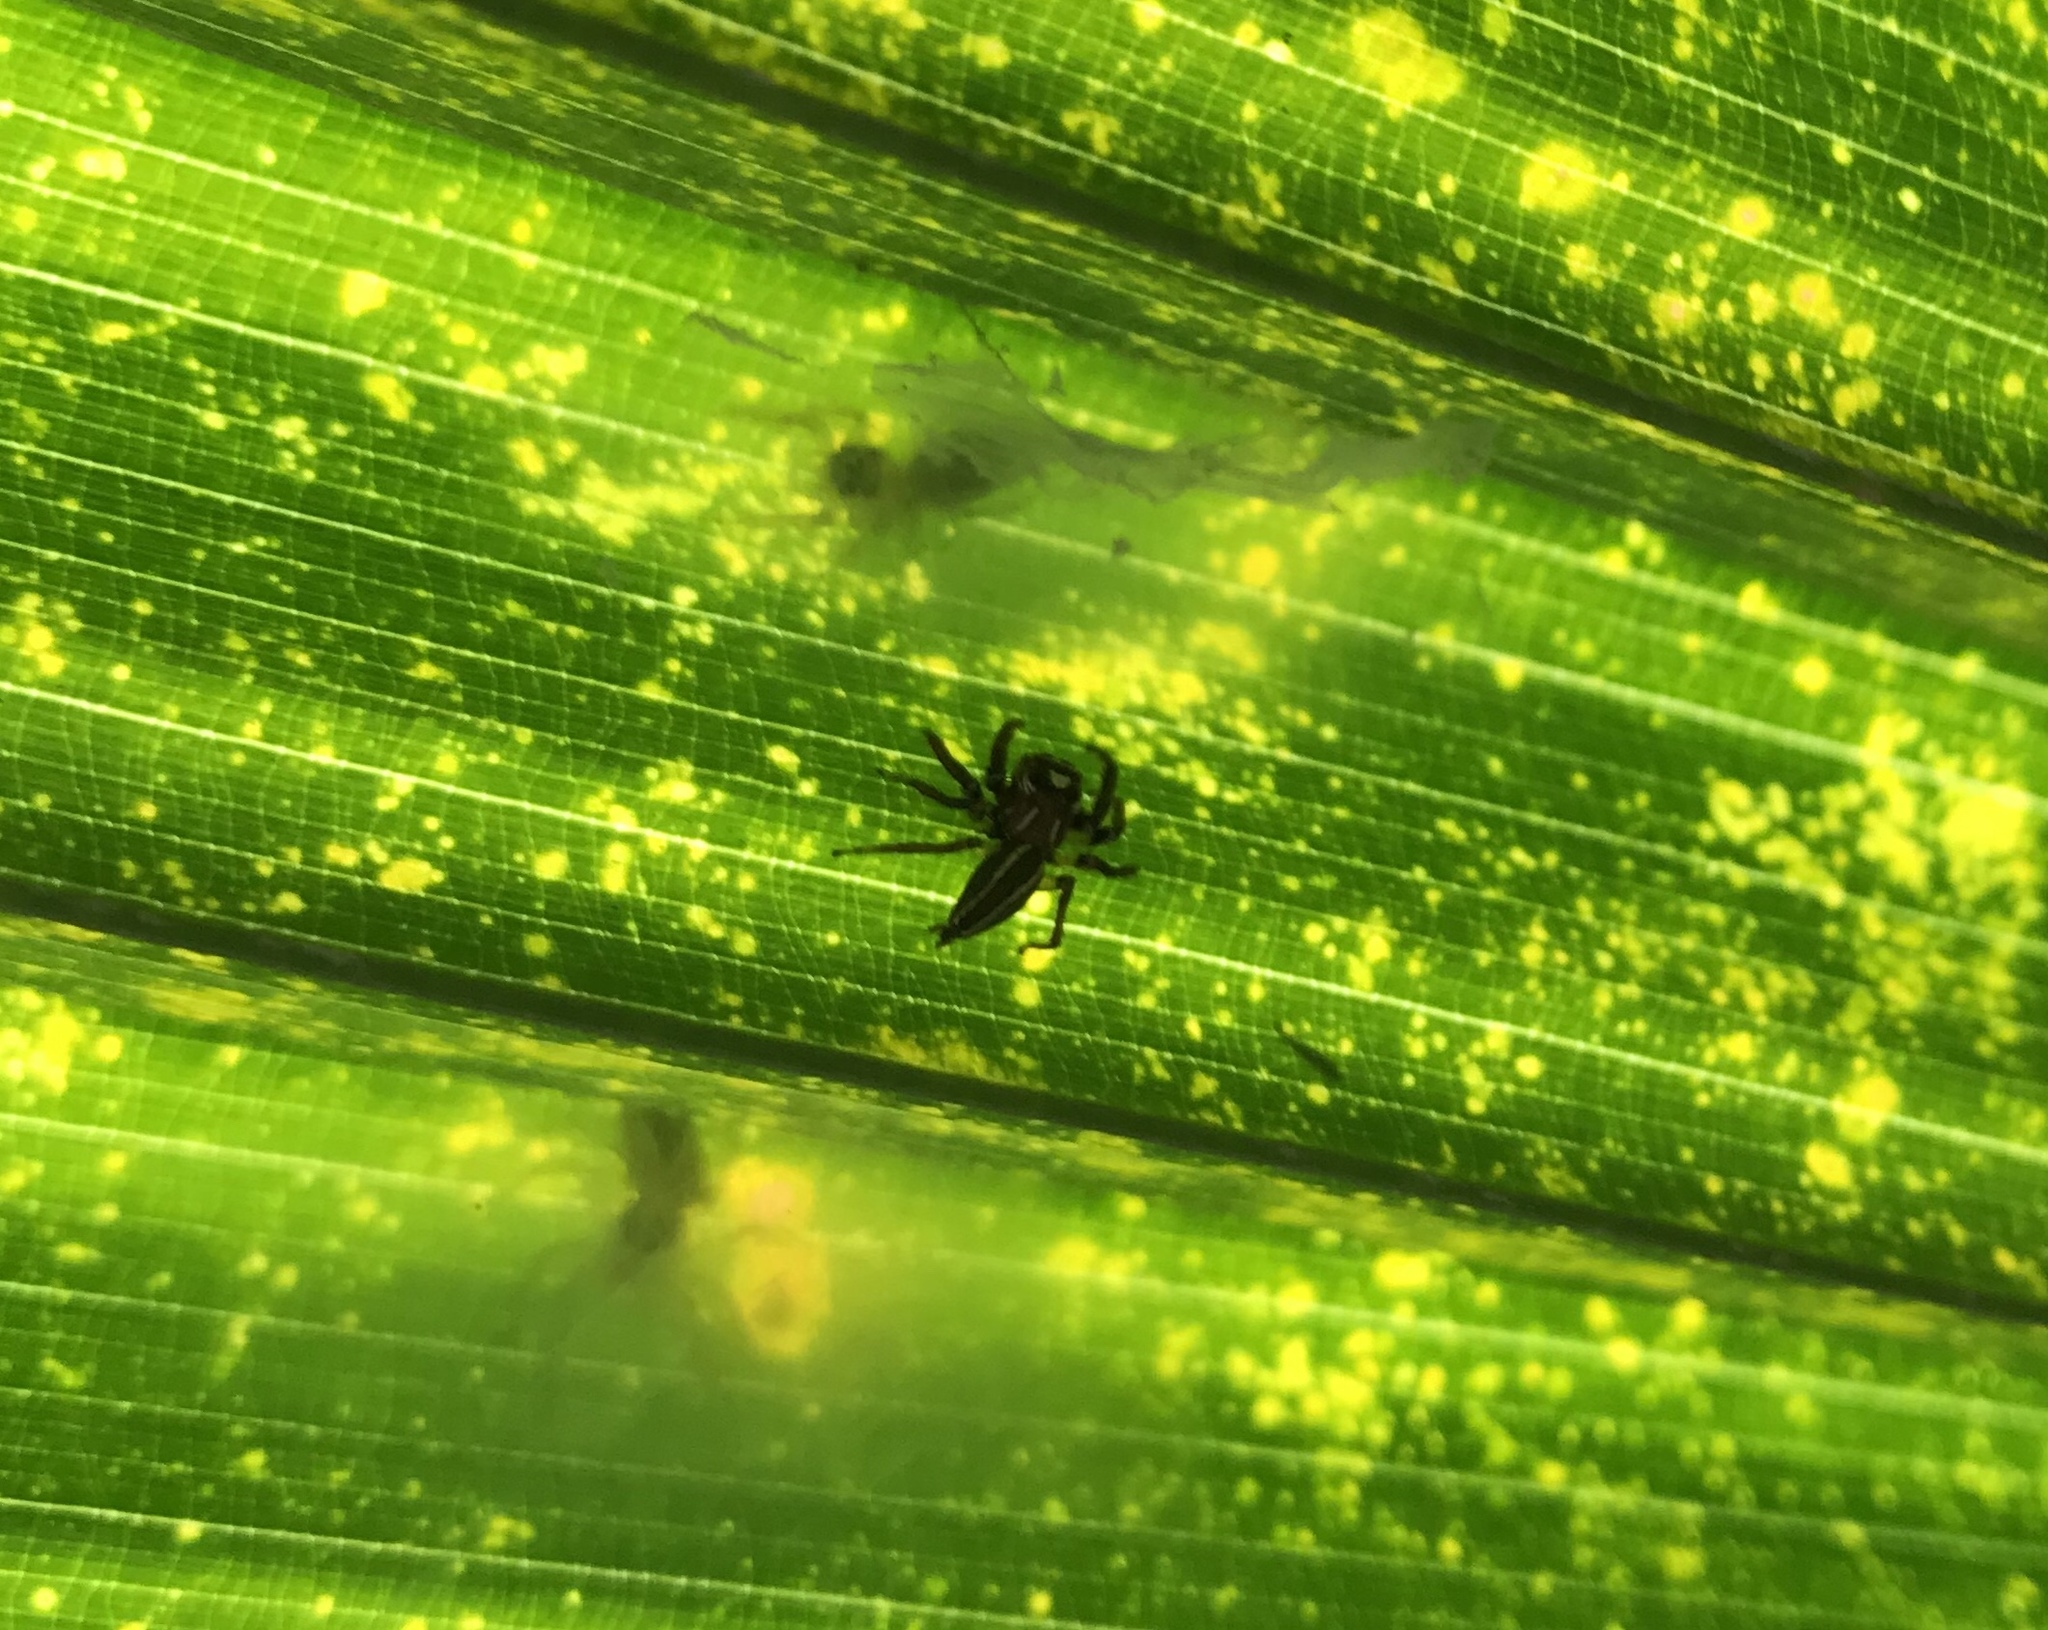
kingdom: Animalia
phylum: Arthropoda
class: Arachnida
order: Araneae
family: Salticidae
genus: Colonus
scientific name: Colonus sylvanus
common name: Jumping spiders
